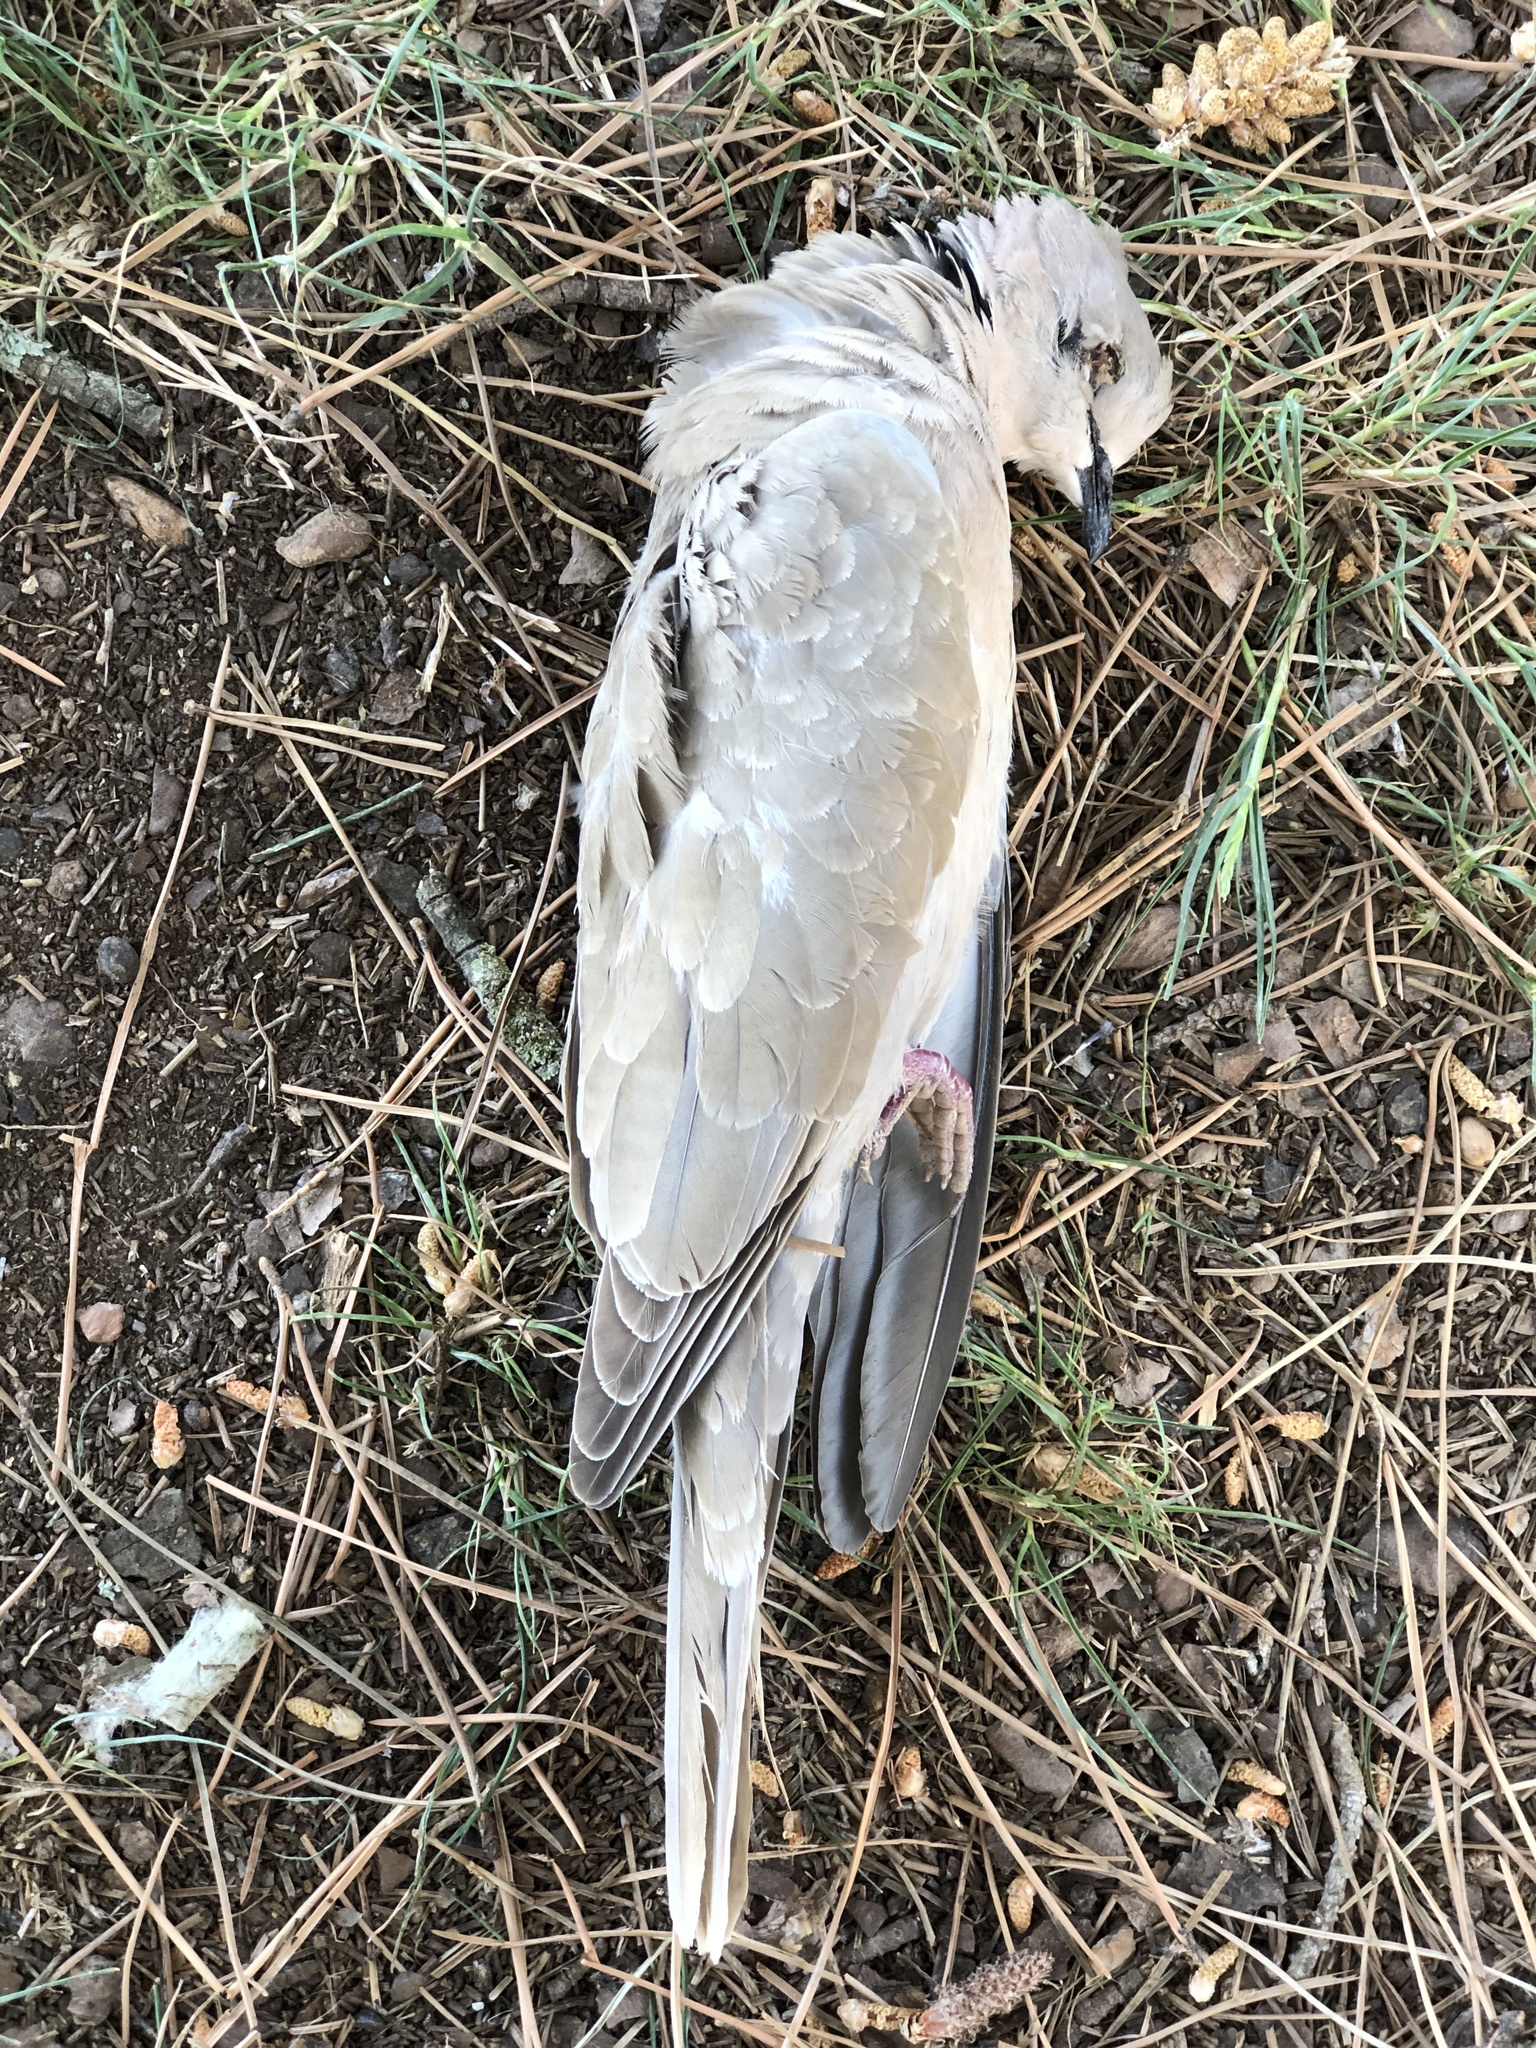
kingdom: Animalia
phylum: Chordata
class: Aves
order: Columbiformes
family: Columbidae
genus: Streptopelia
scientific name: Streptopelia decaocto
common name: Eurasian collared dove
